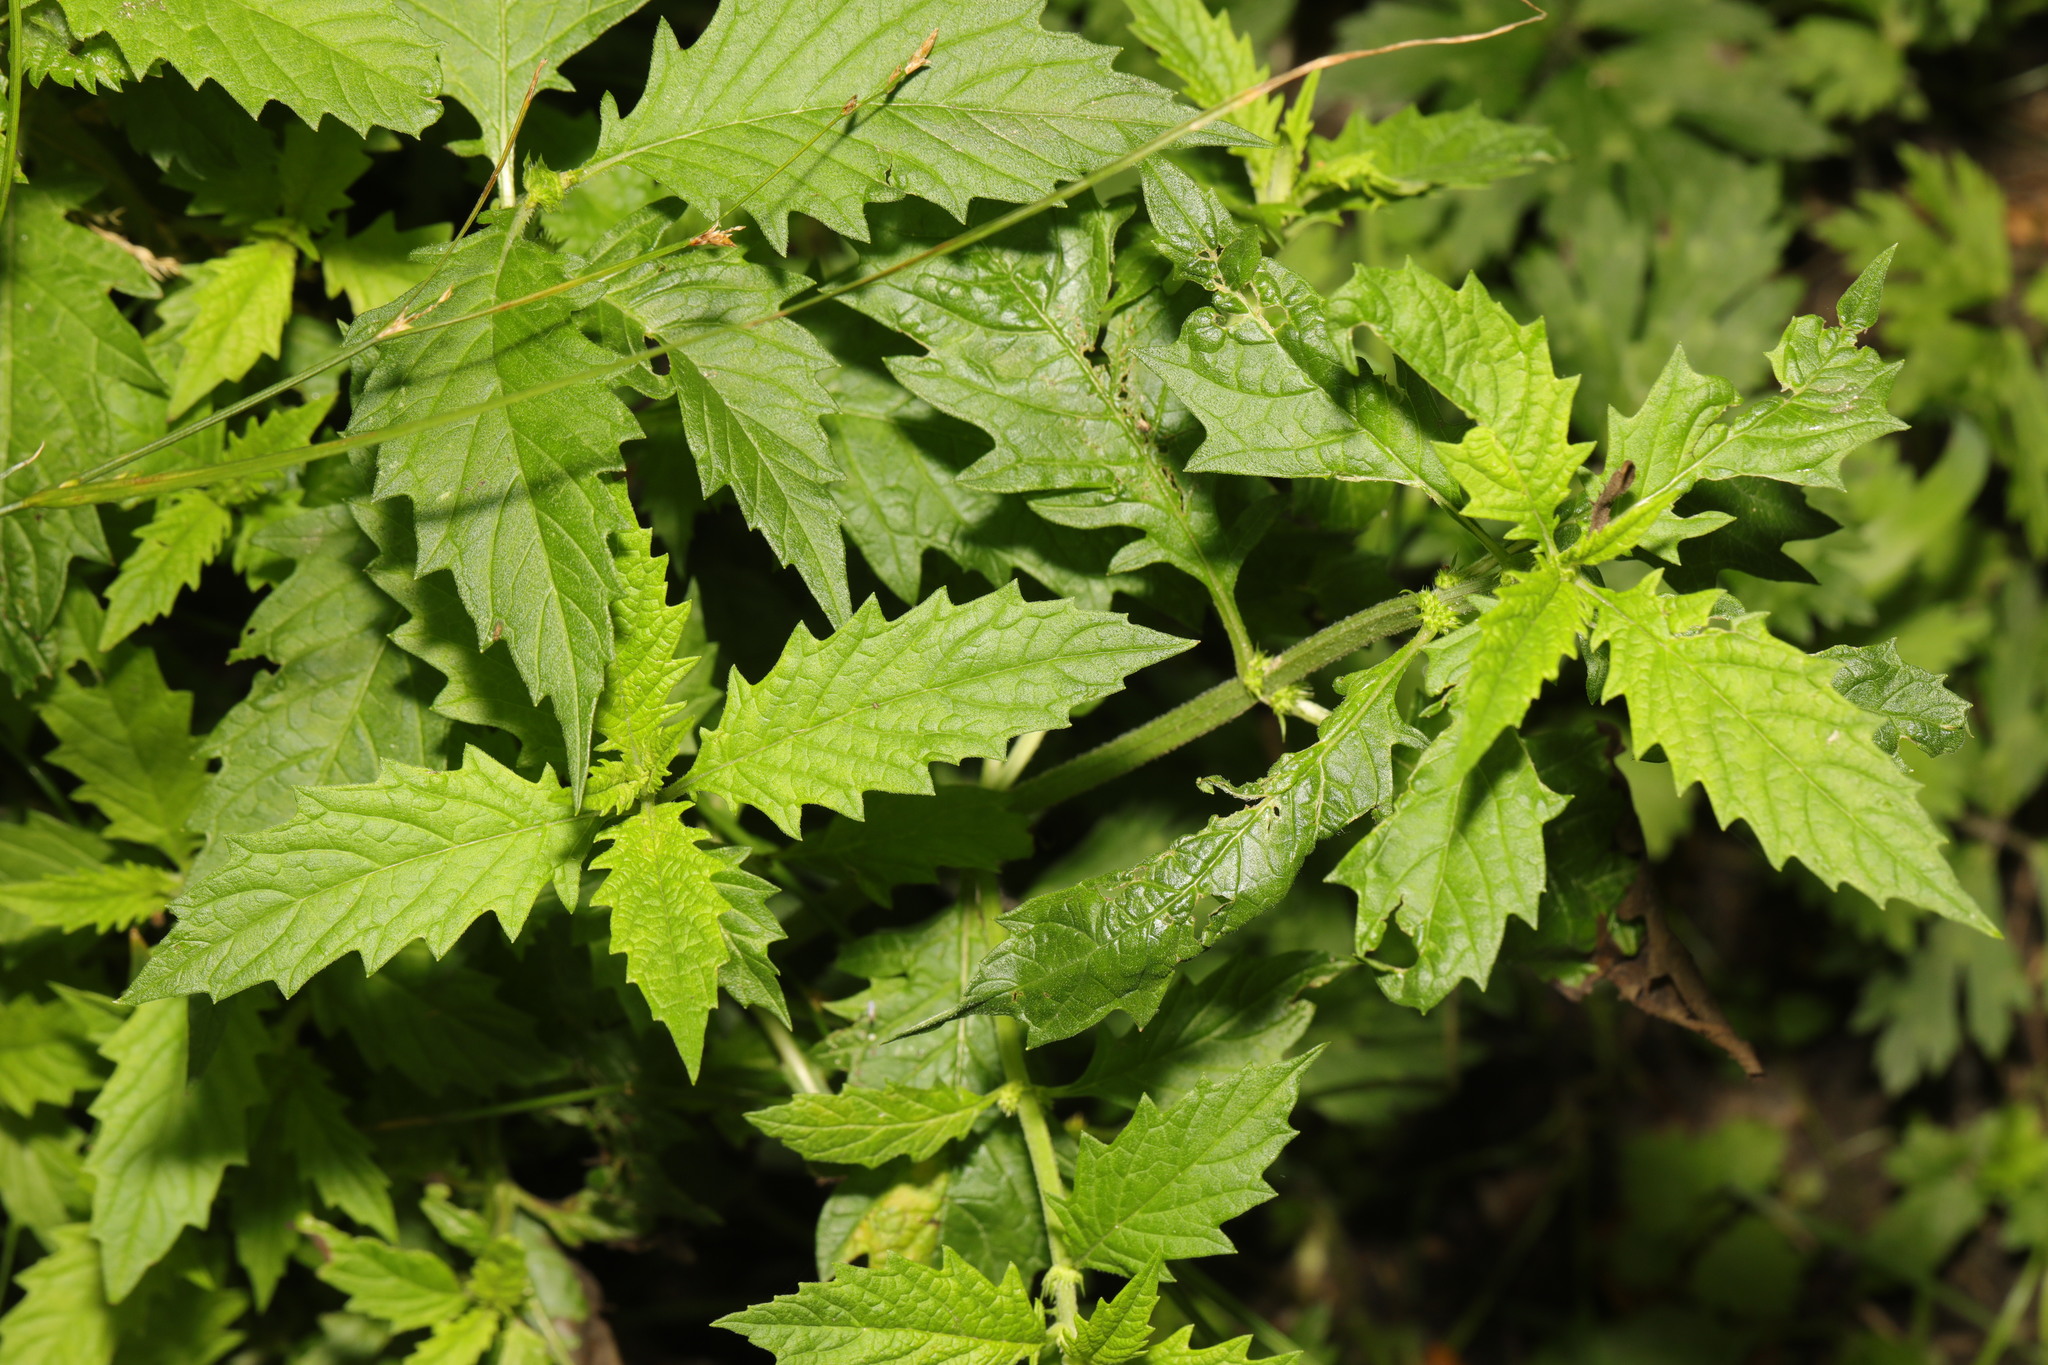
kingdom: Plantae
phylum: Tracheophyta
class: Magnoliopsida
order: Lamiales
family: Lamiaceae
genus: Lycopus
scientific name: Lycopus europaeus
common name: European bugleweed
